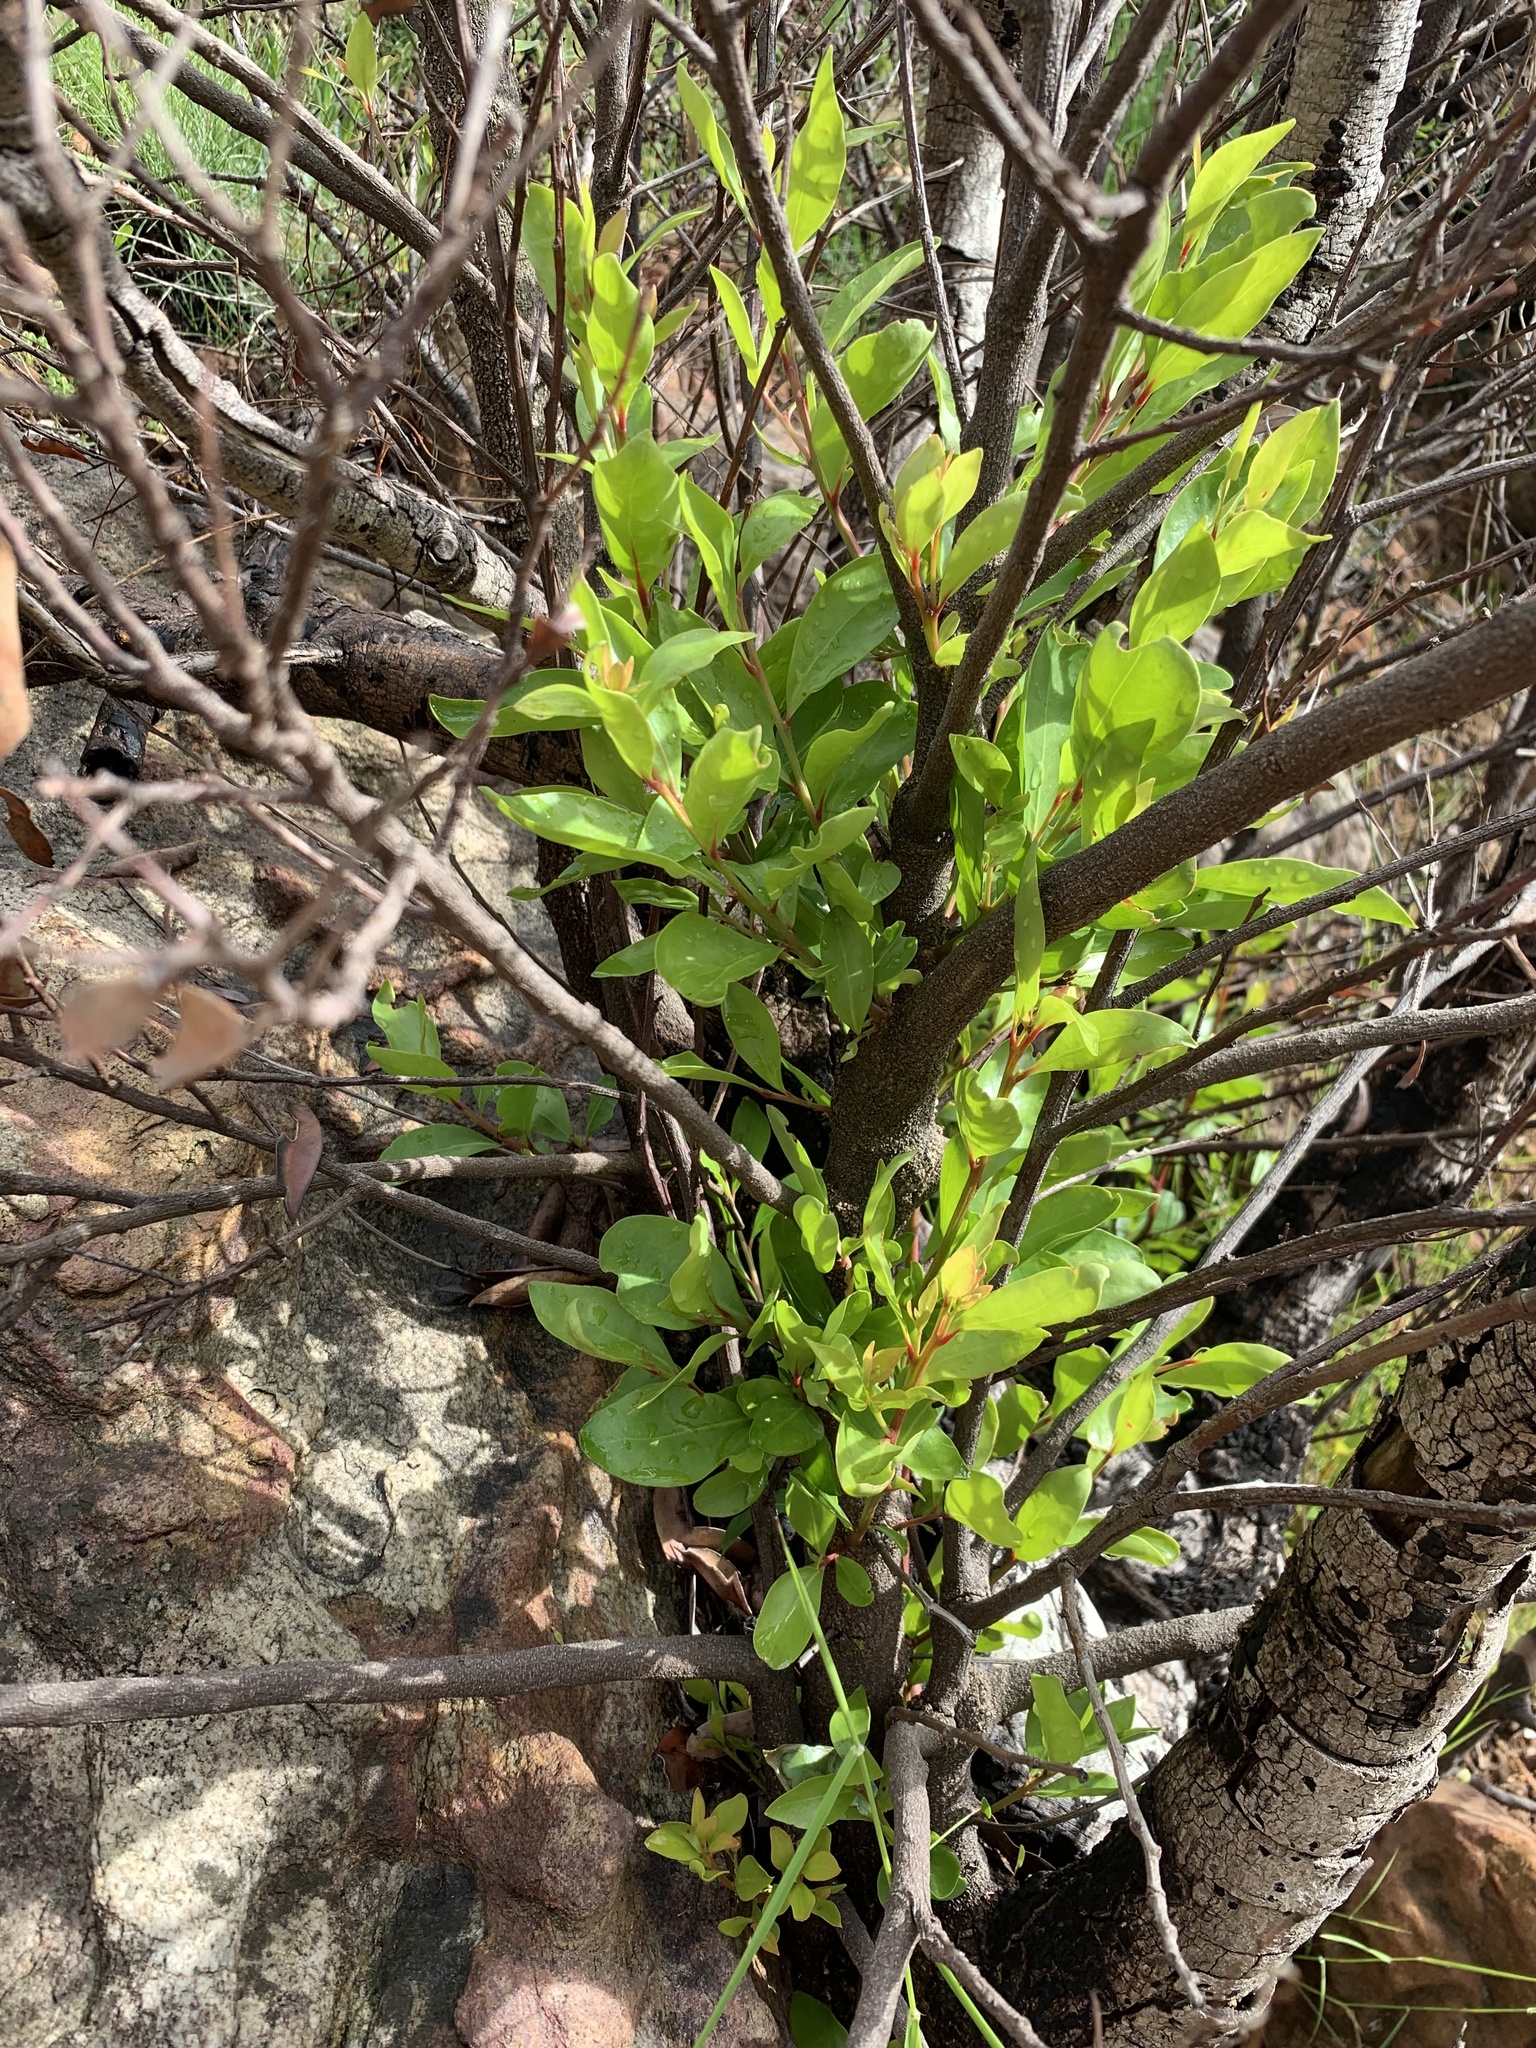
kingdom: Plantae
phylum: Tracheophyta
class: Magnoliopsida
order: Celastrales
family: Celastraceae
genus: Gymnosporia
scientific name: Gymnosporia laurina
